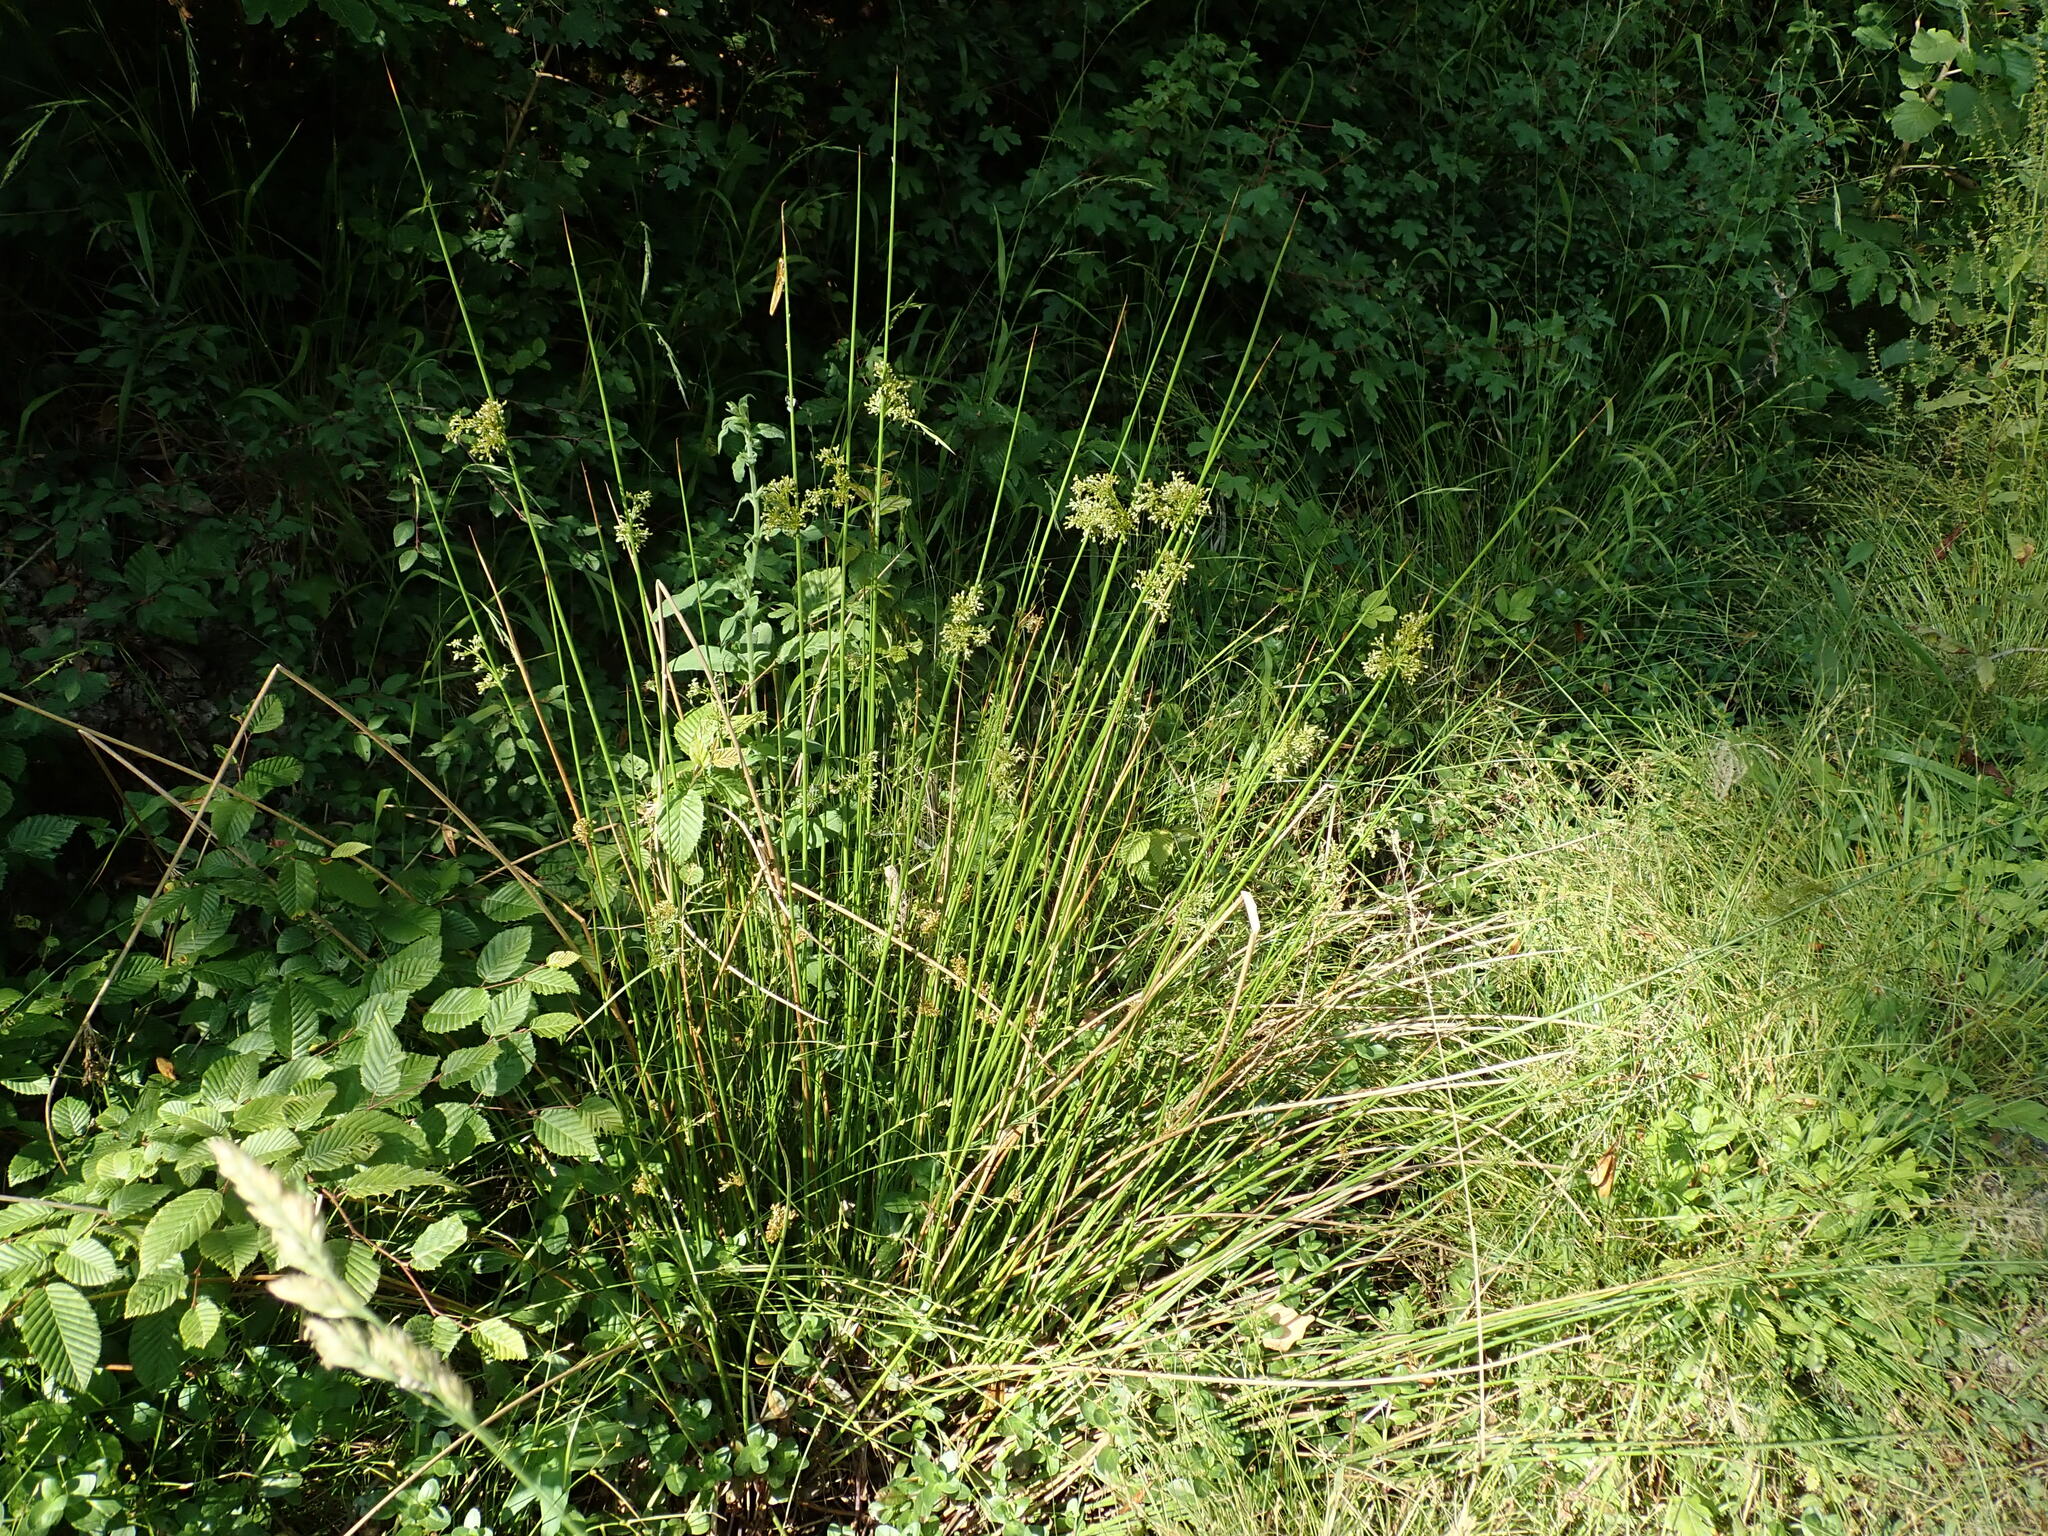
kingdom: Plantae
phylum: Tracheophyta
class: Liliopsida
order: Poales
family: Juncaceae
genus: Juncus
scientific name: Juncus effusus
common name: Soft rush
